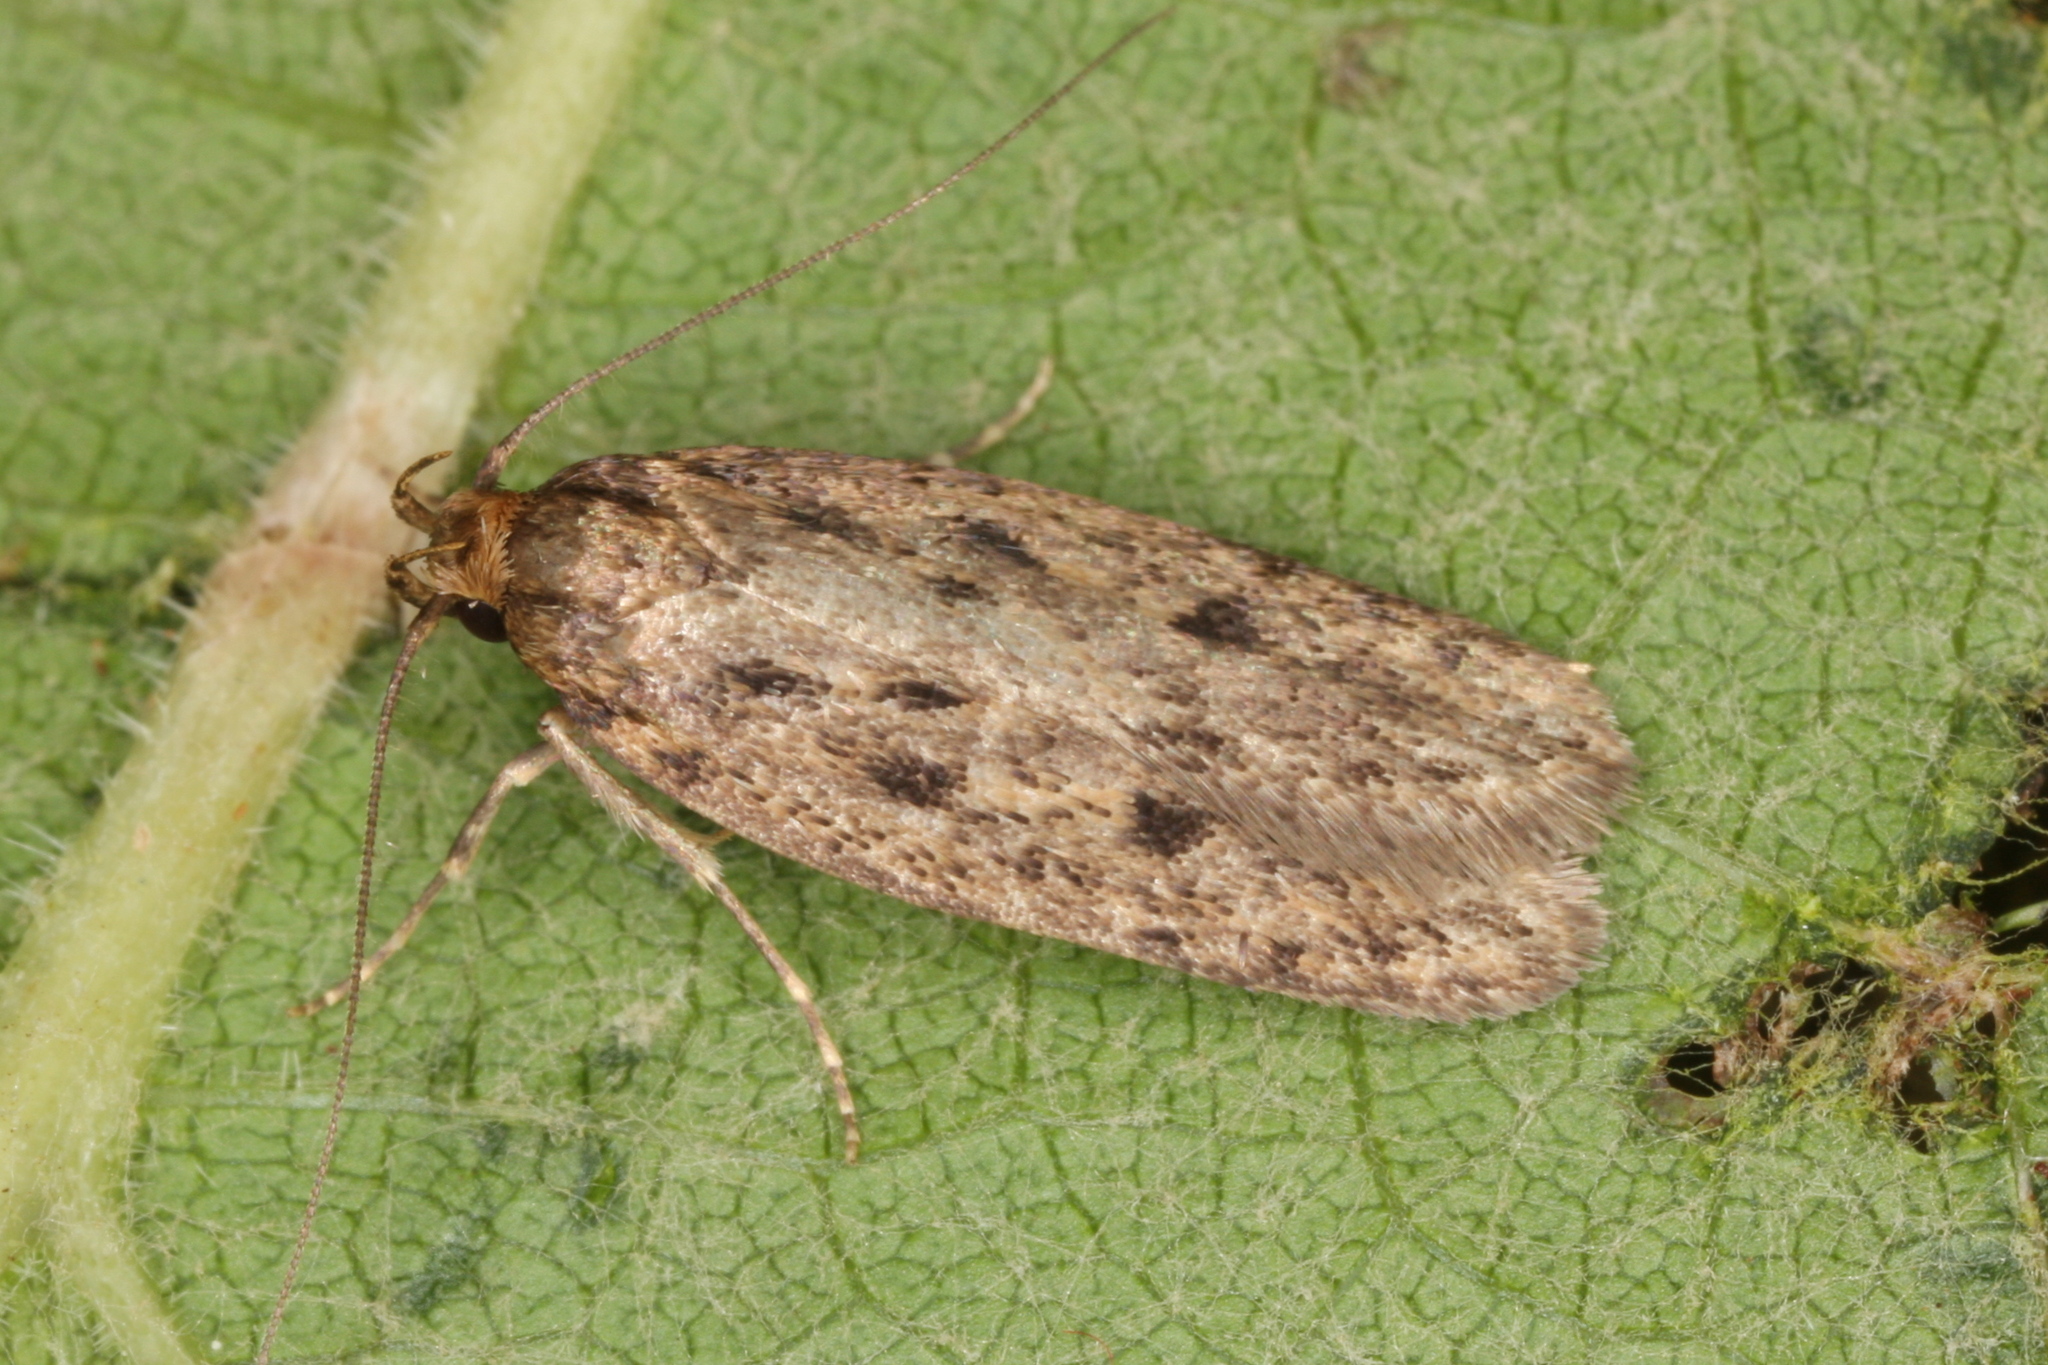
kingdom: Animalia
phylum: Arthropoda
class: Insecta
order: Lepidoptera
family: Oecophoridae
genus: Hofmannophila
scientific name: Hofmannophila pseudospretella
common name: Brown house moth
